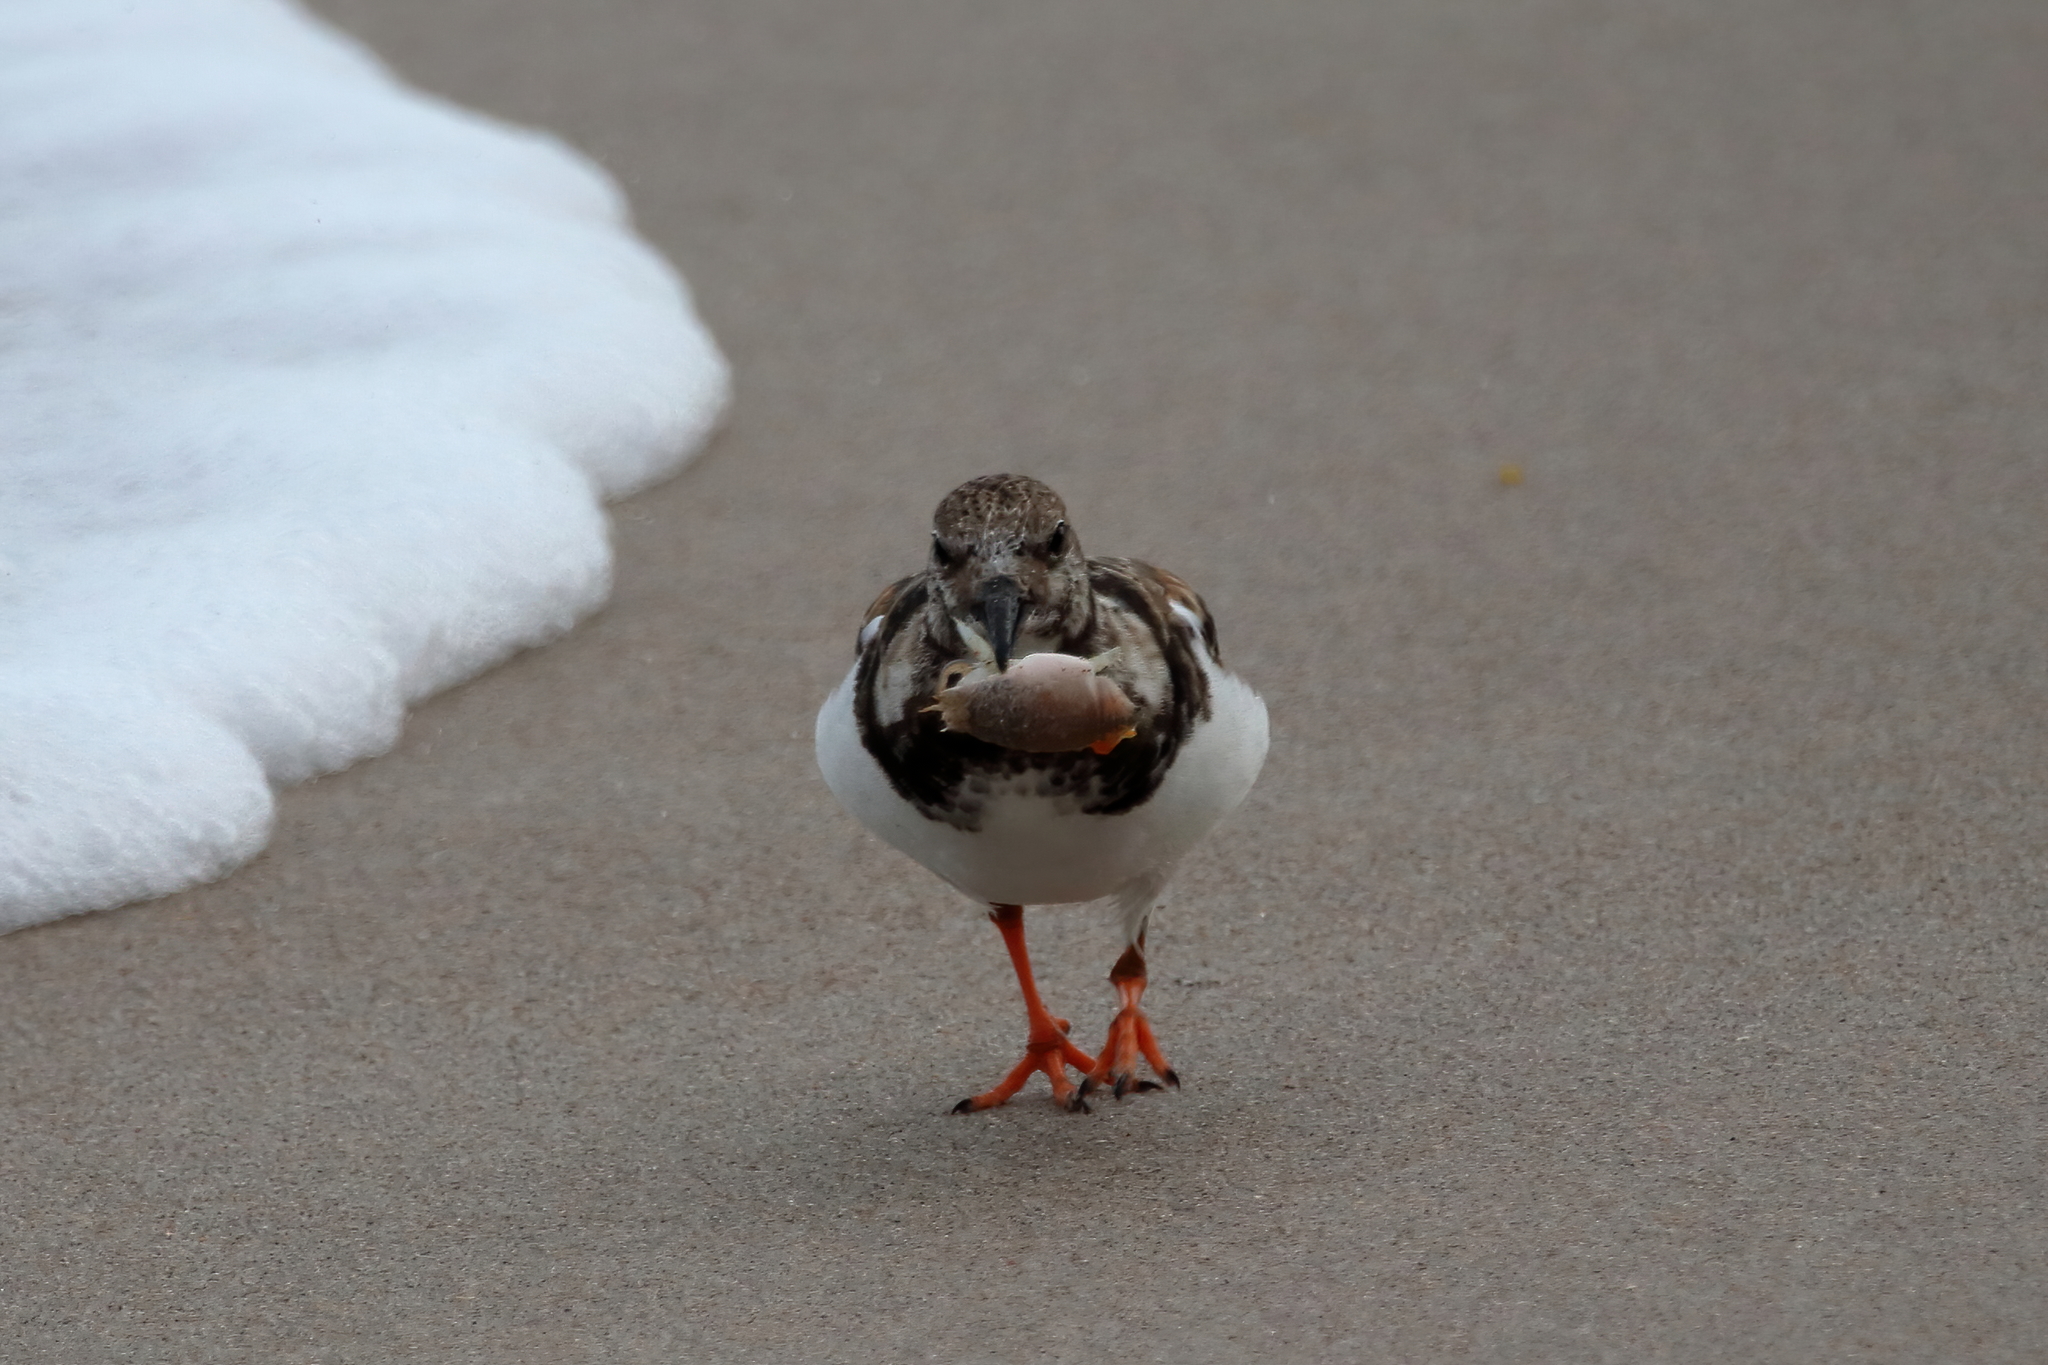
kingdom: Animalia
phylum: Chordata
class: Aves
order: Charadriiformes
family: Scolopacidae
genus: Arenaria
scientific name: Arenaria interpres
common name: Ruddy turnstone
